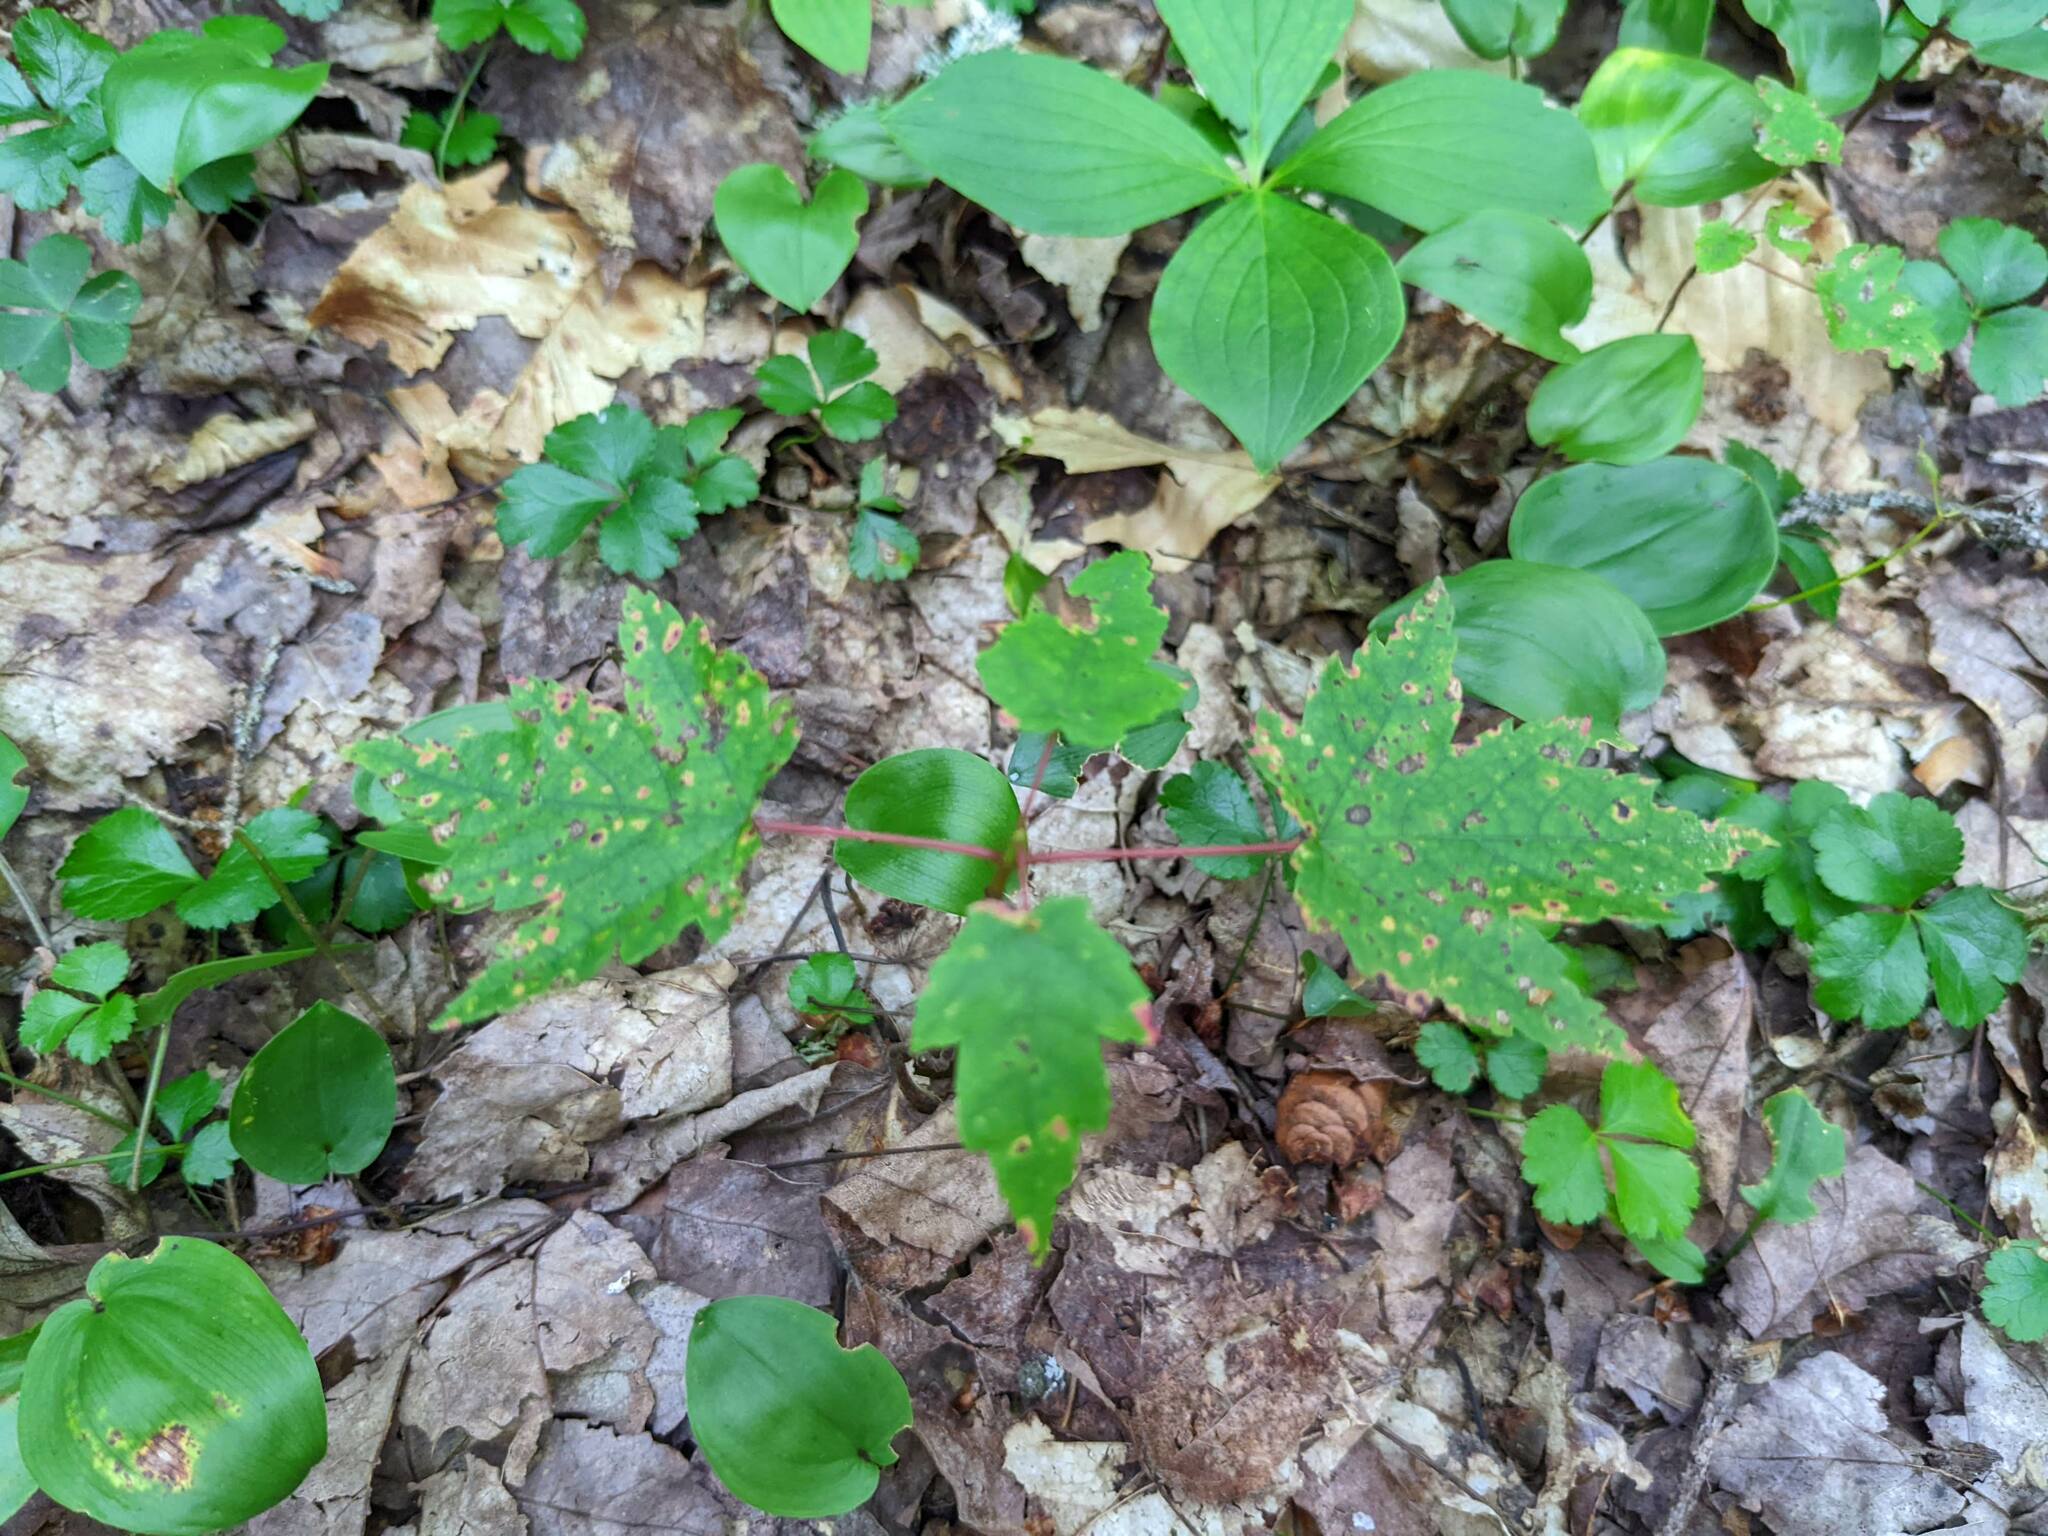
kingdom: Plantae
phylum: Tracheophyta
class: Liliopsida
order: Asparagales
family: Asparagaceae
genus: Maianthemum
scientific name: Maianthemum canadense
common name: False lily-of-the-valley
